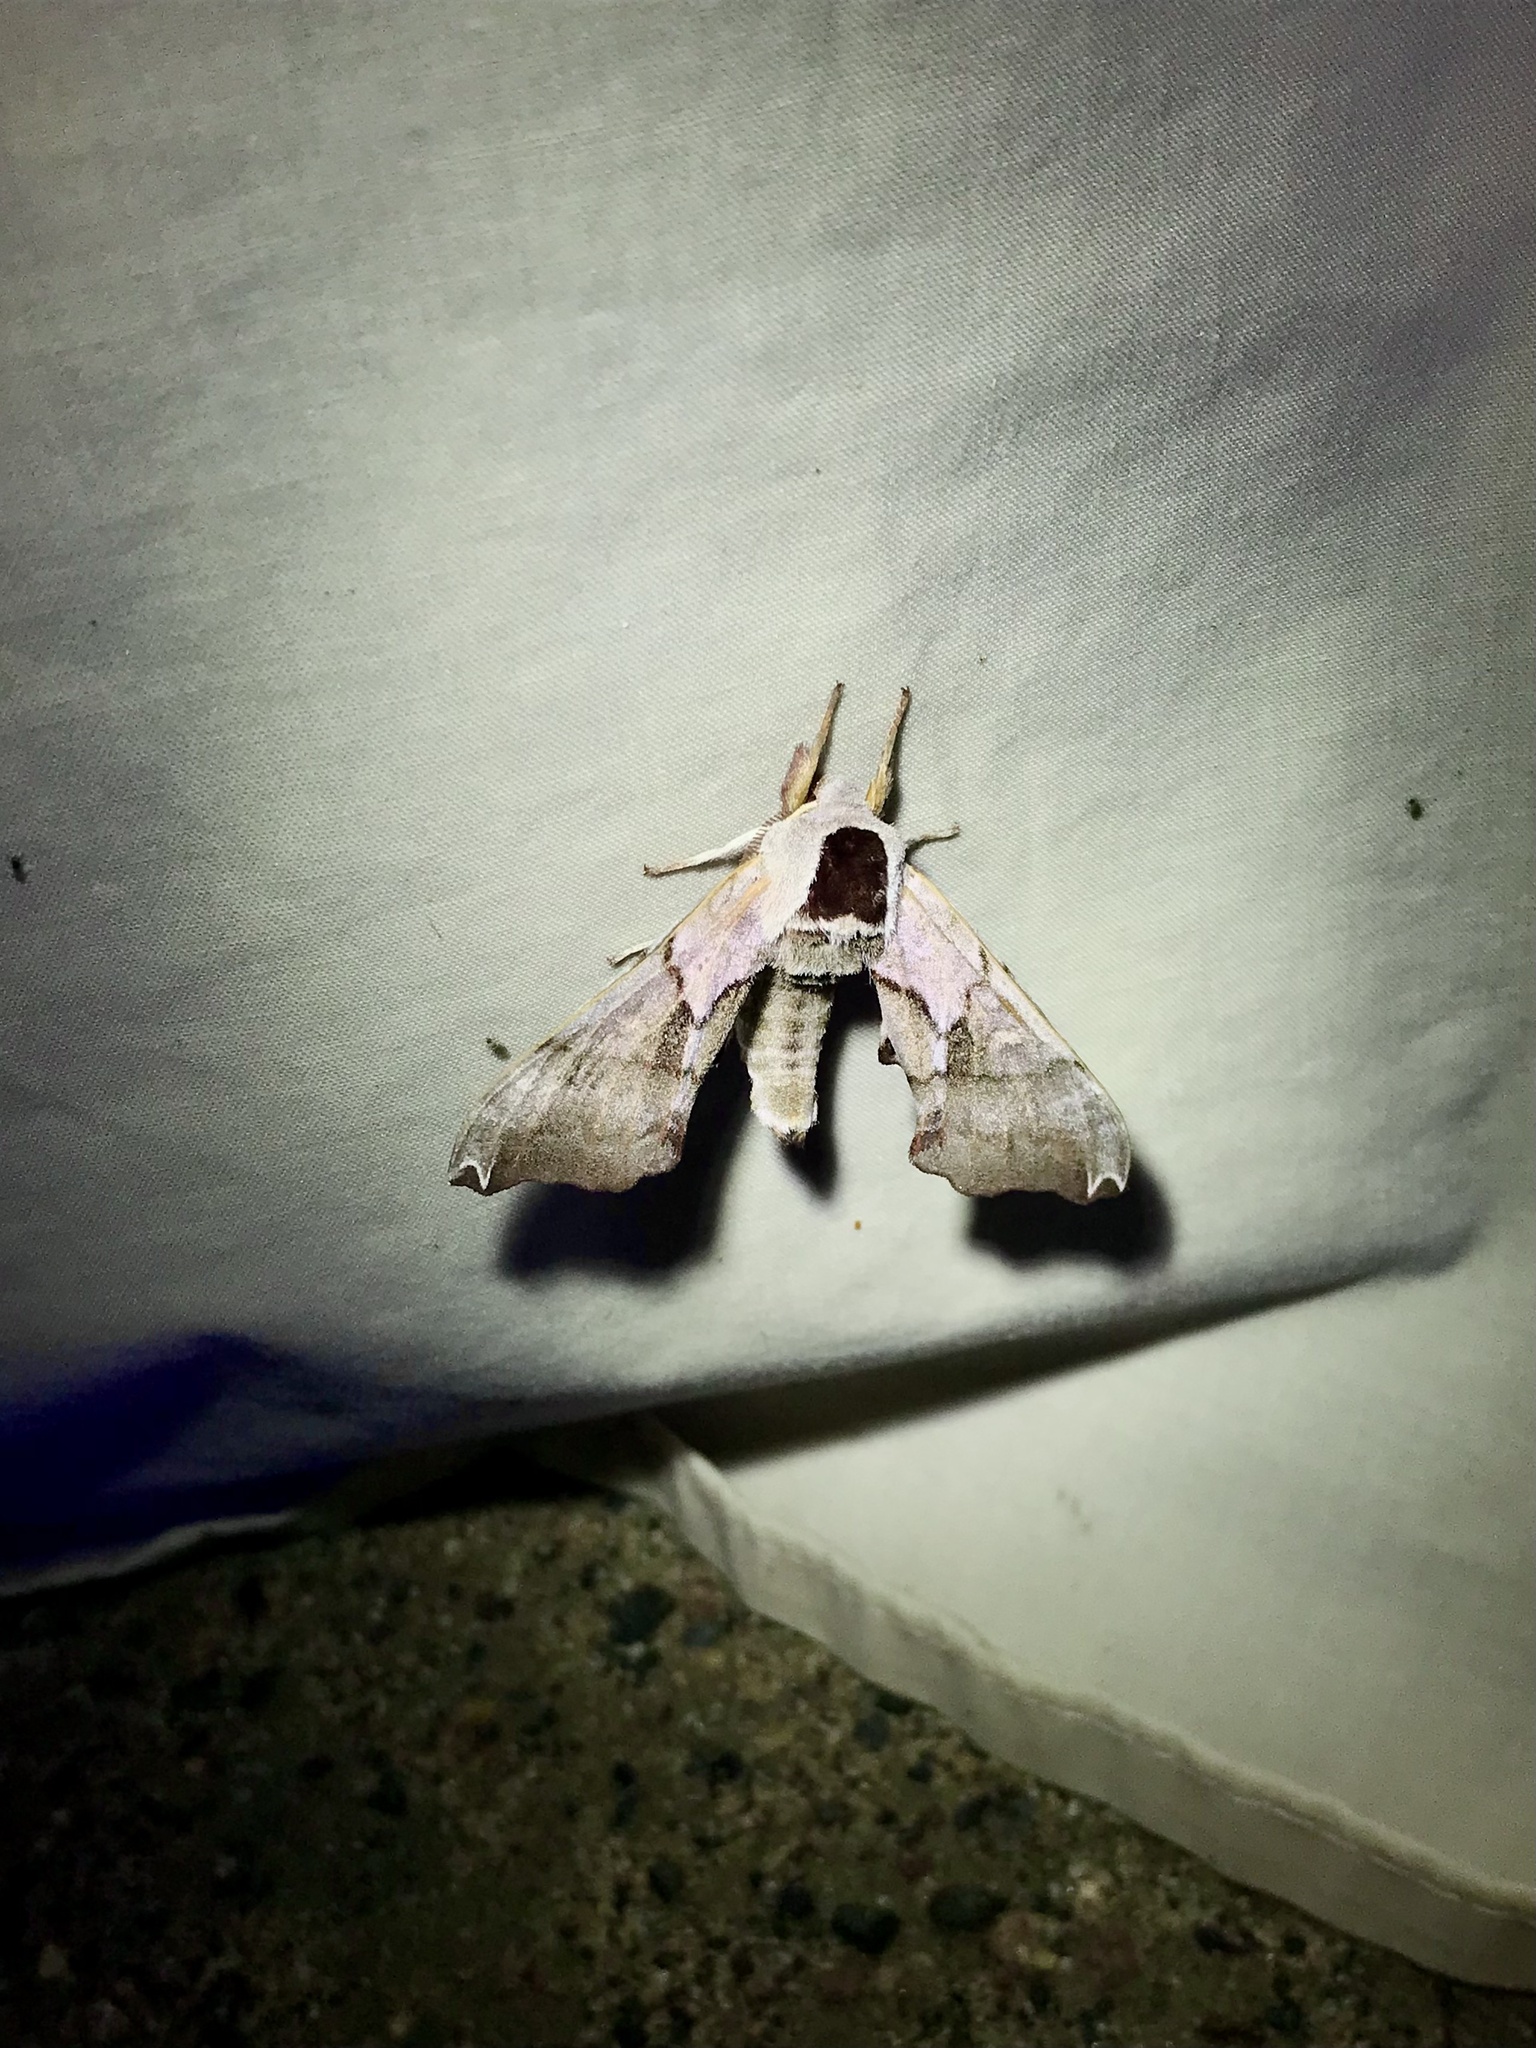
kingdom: Animalia
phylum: Arthropoda
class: Insecta
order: Lepidoptera
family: Sphingidae
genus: Smerinthus
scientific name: Smerinthus jamaicensis
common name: Twin spotted sphinx
